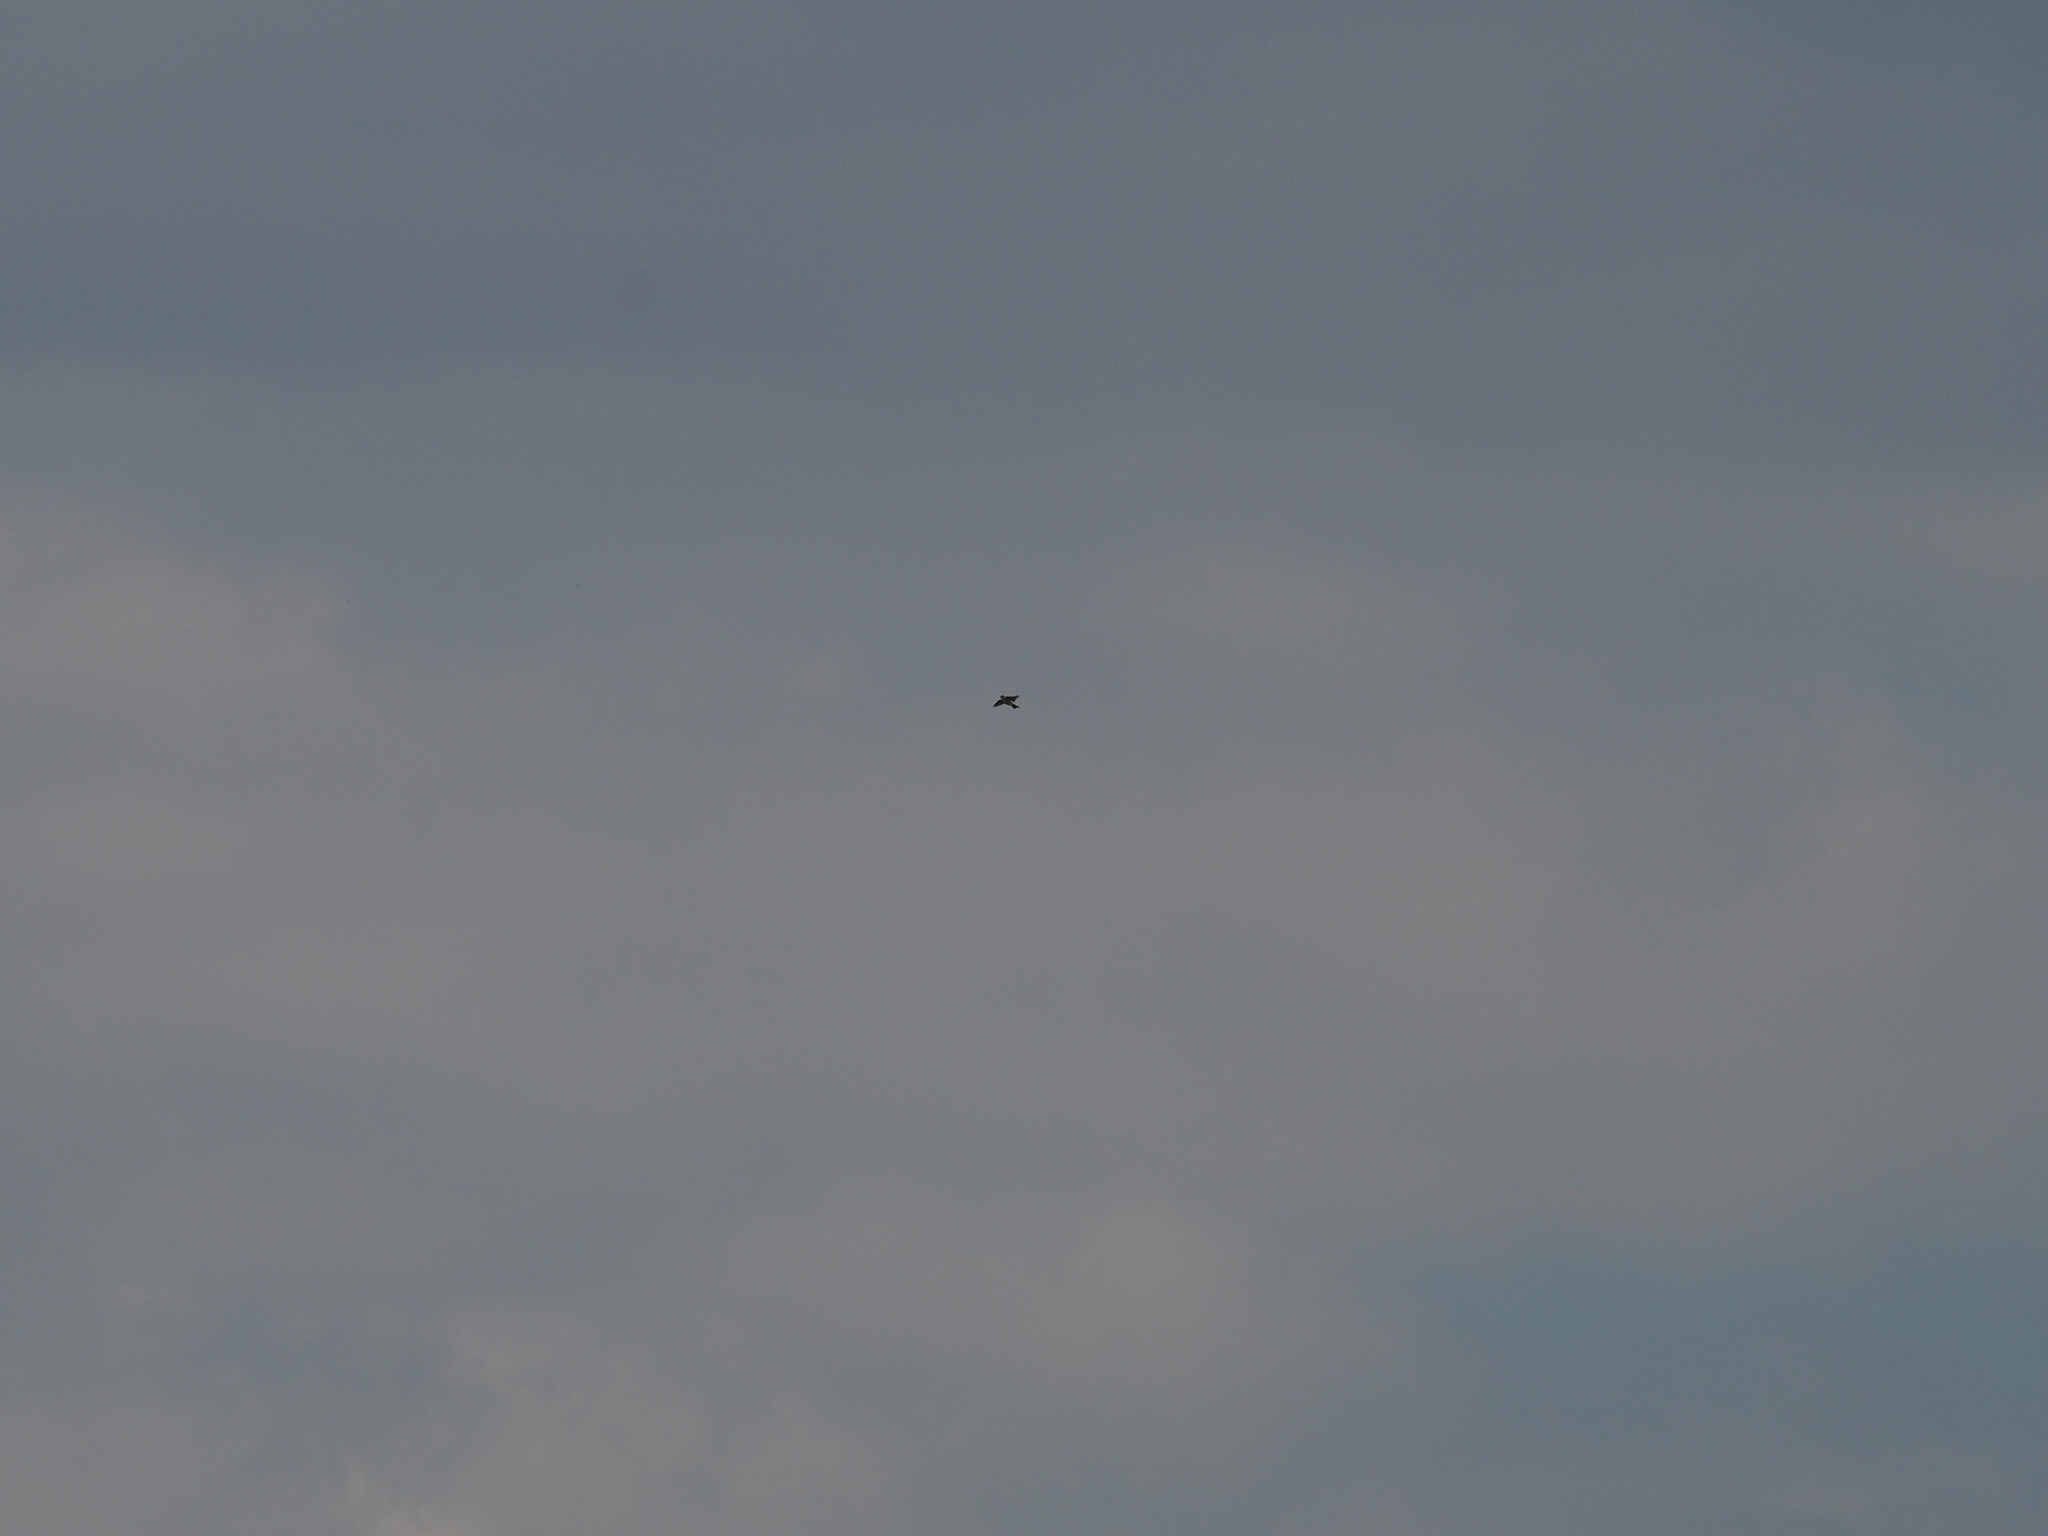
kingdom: Animalia
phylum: Chordata
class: Aves
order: Passeriformes
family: Alaudidae
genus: Alauda
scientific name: Alauda arvensis
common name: Eurasian skylark
